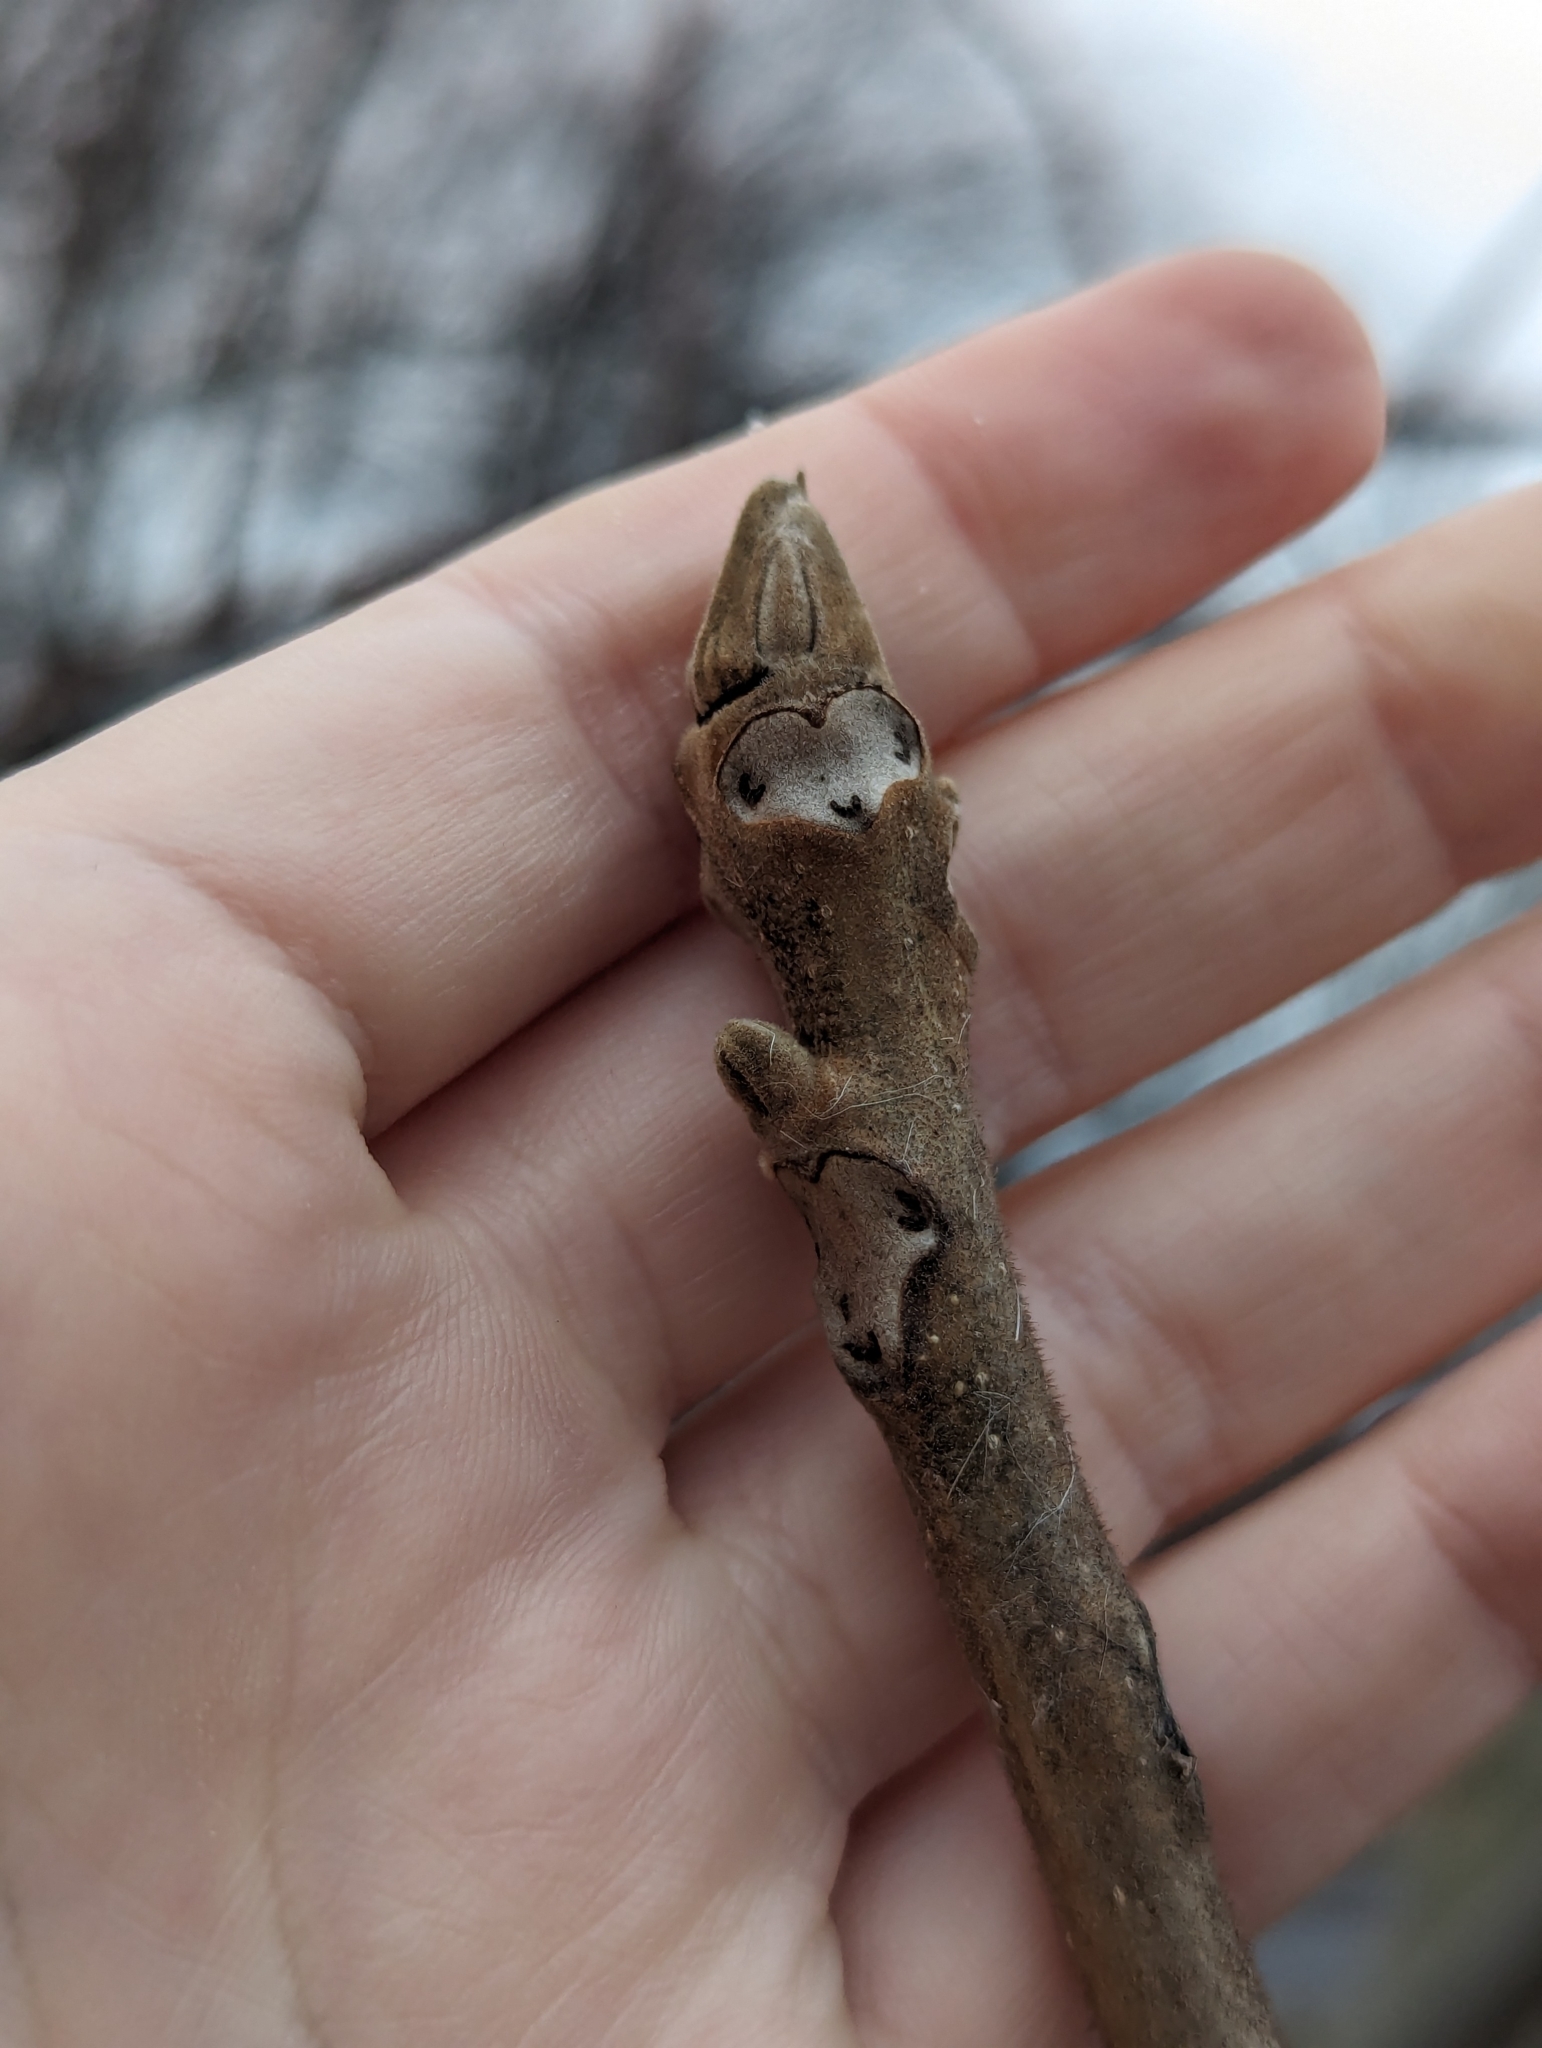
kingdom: Plantae
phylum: Tracheophyta
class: Magnoliopsida
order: Fagales
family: Juglandaceae
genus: Juglans
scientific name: Juglans nigra
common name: Black walnut
